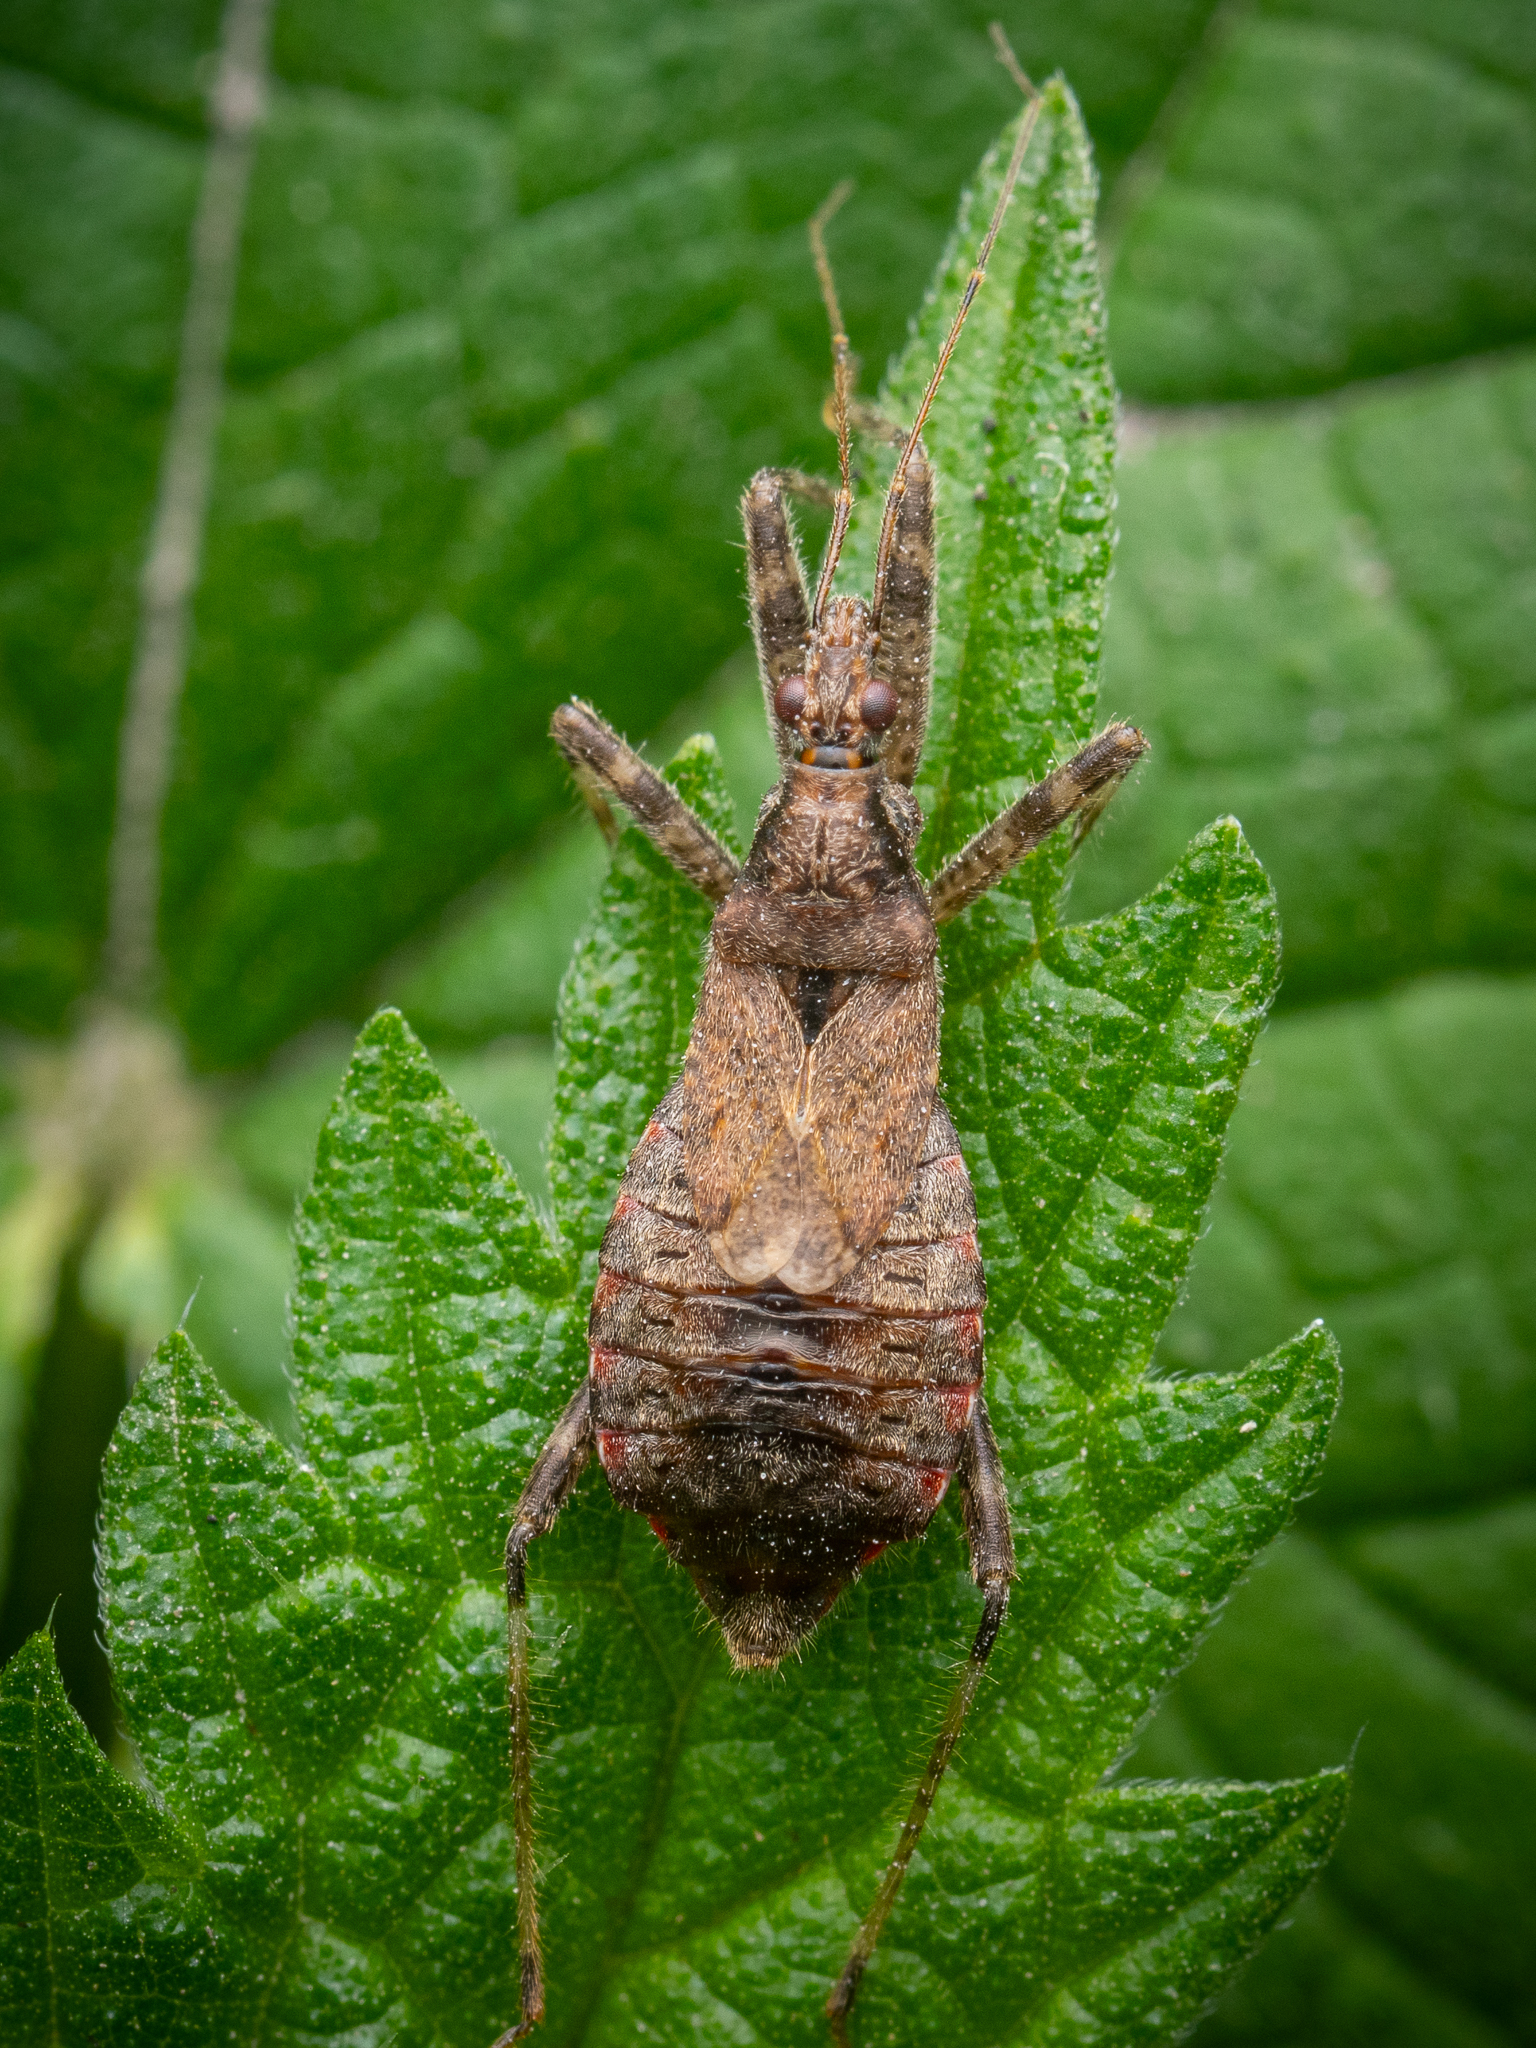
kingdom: Animalia
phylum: Arthropoda
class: Insecta
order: Hemiptera
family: Nabidae
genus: Himacerus
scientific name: Himacerus apterus
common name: Tree damsel bug
